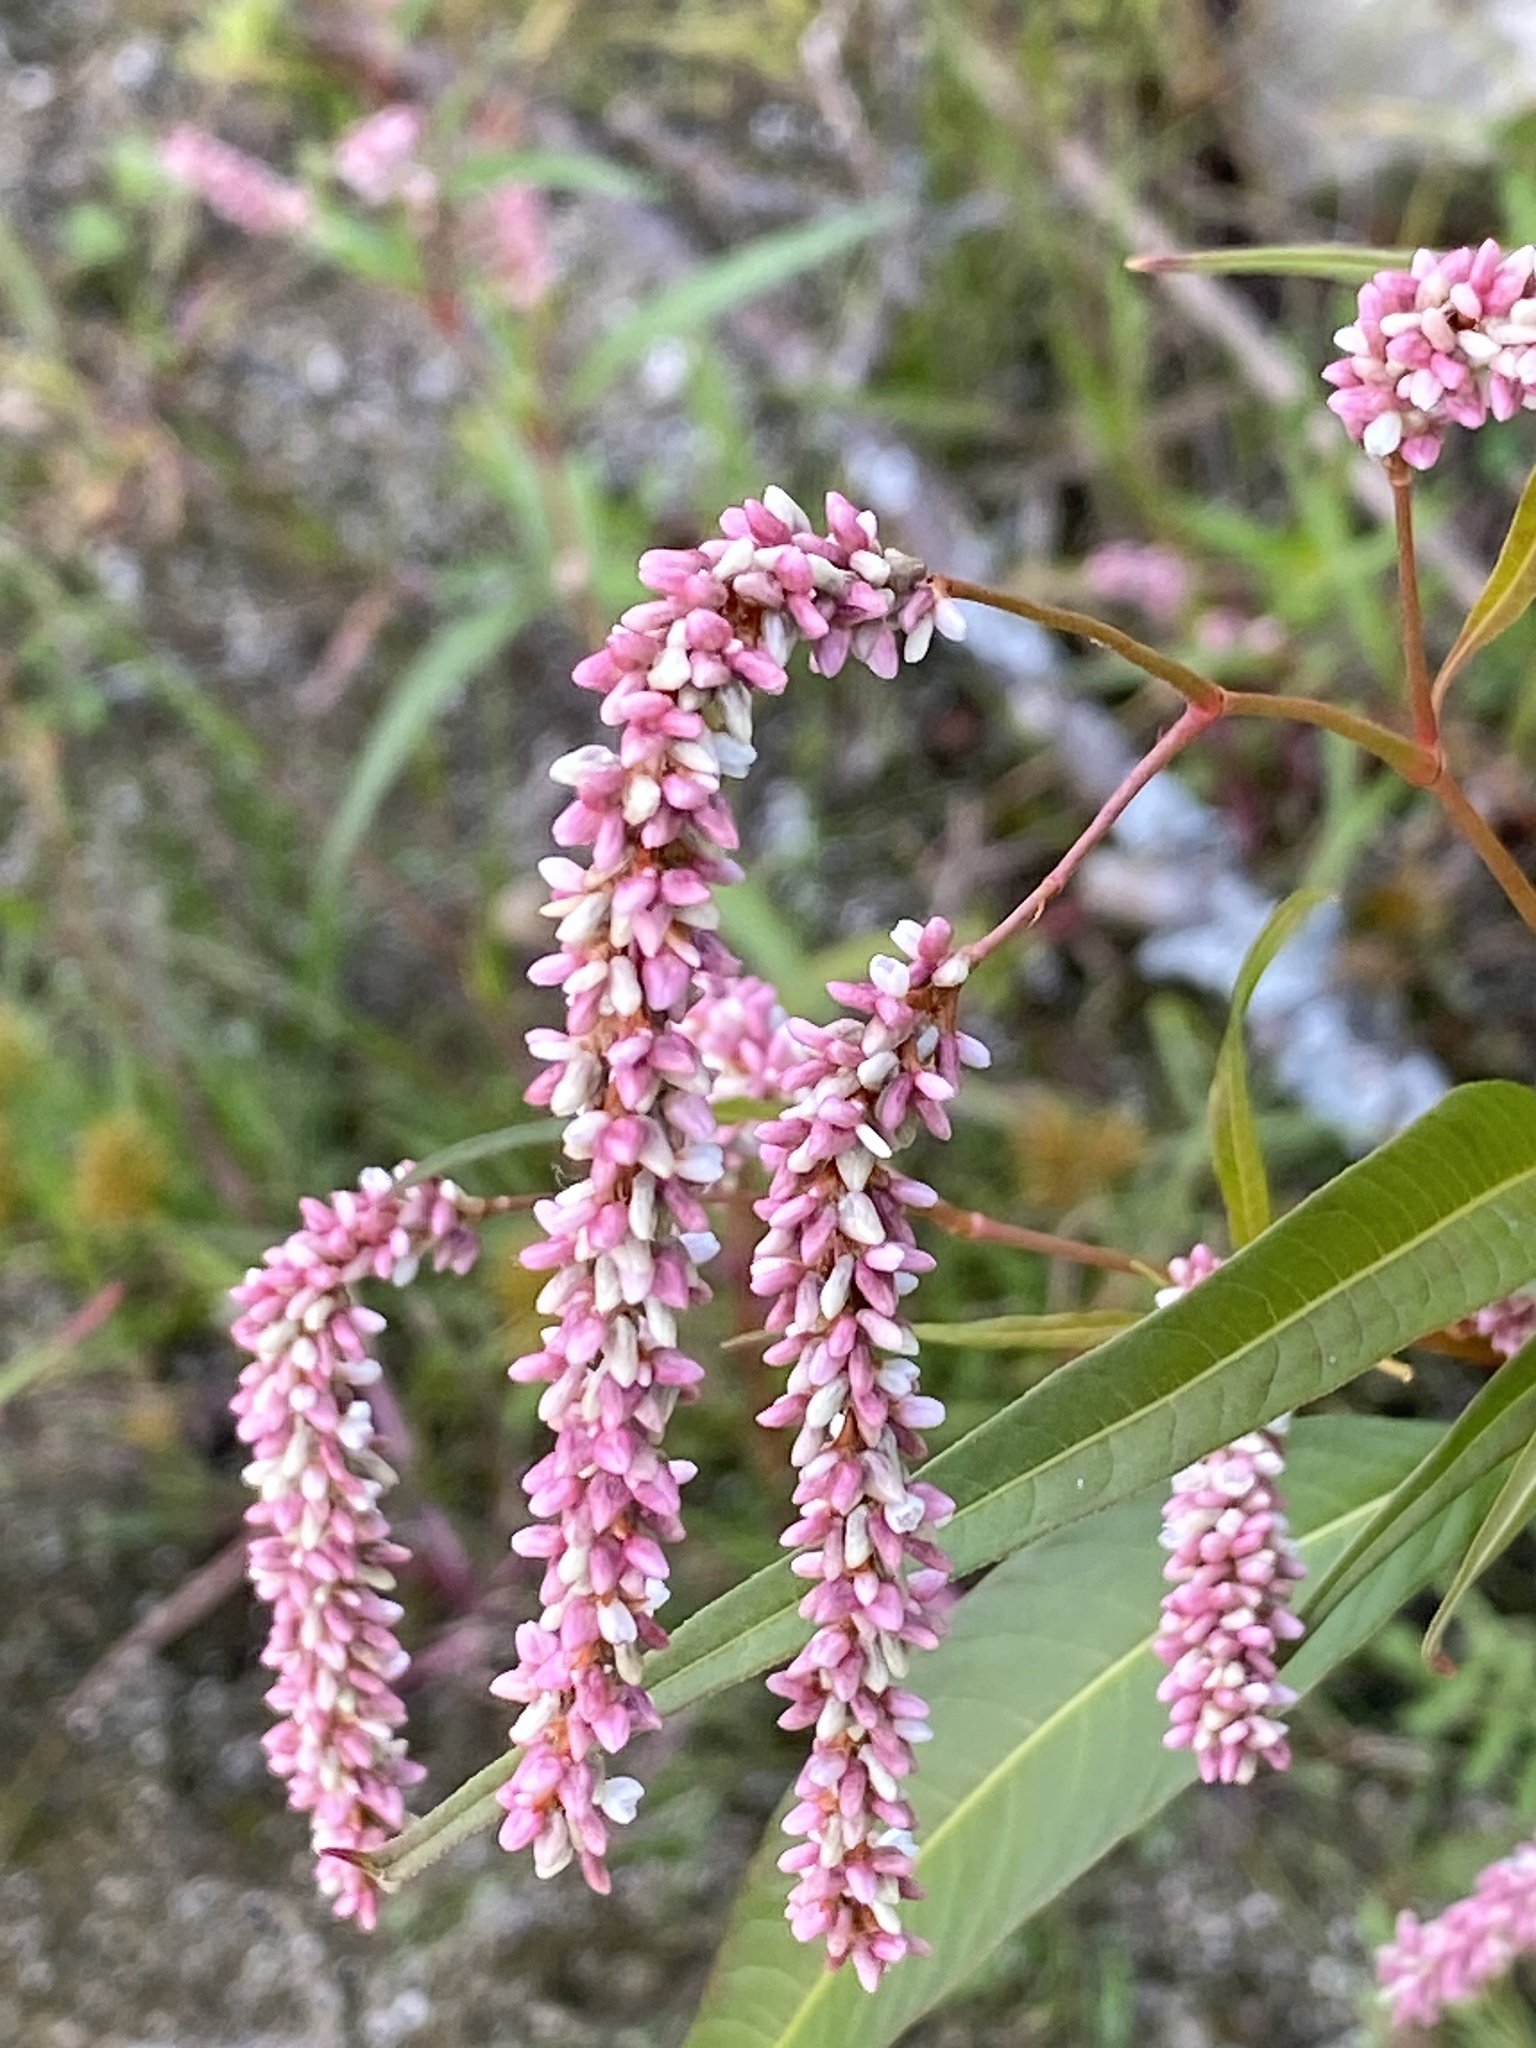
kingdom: Plantae
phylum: Tracheophyta
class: Magnoliopsida
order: Caryophyllales
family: Polygonaceae
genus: Persicaria
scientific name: Persicaria lapathifolia
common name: Curlytop knotweed
